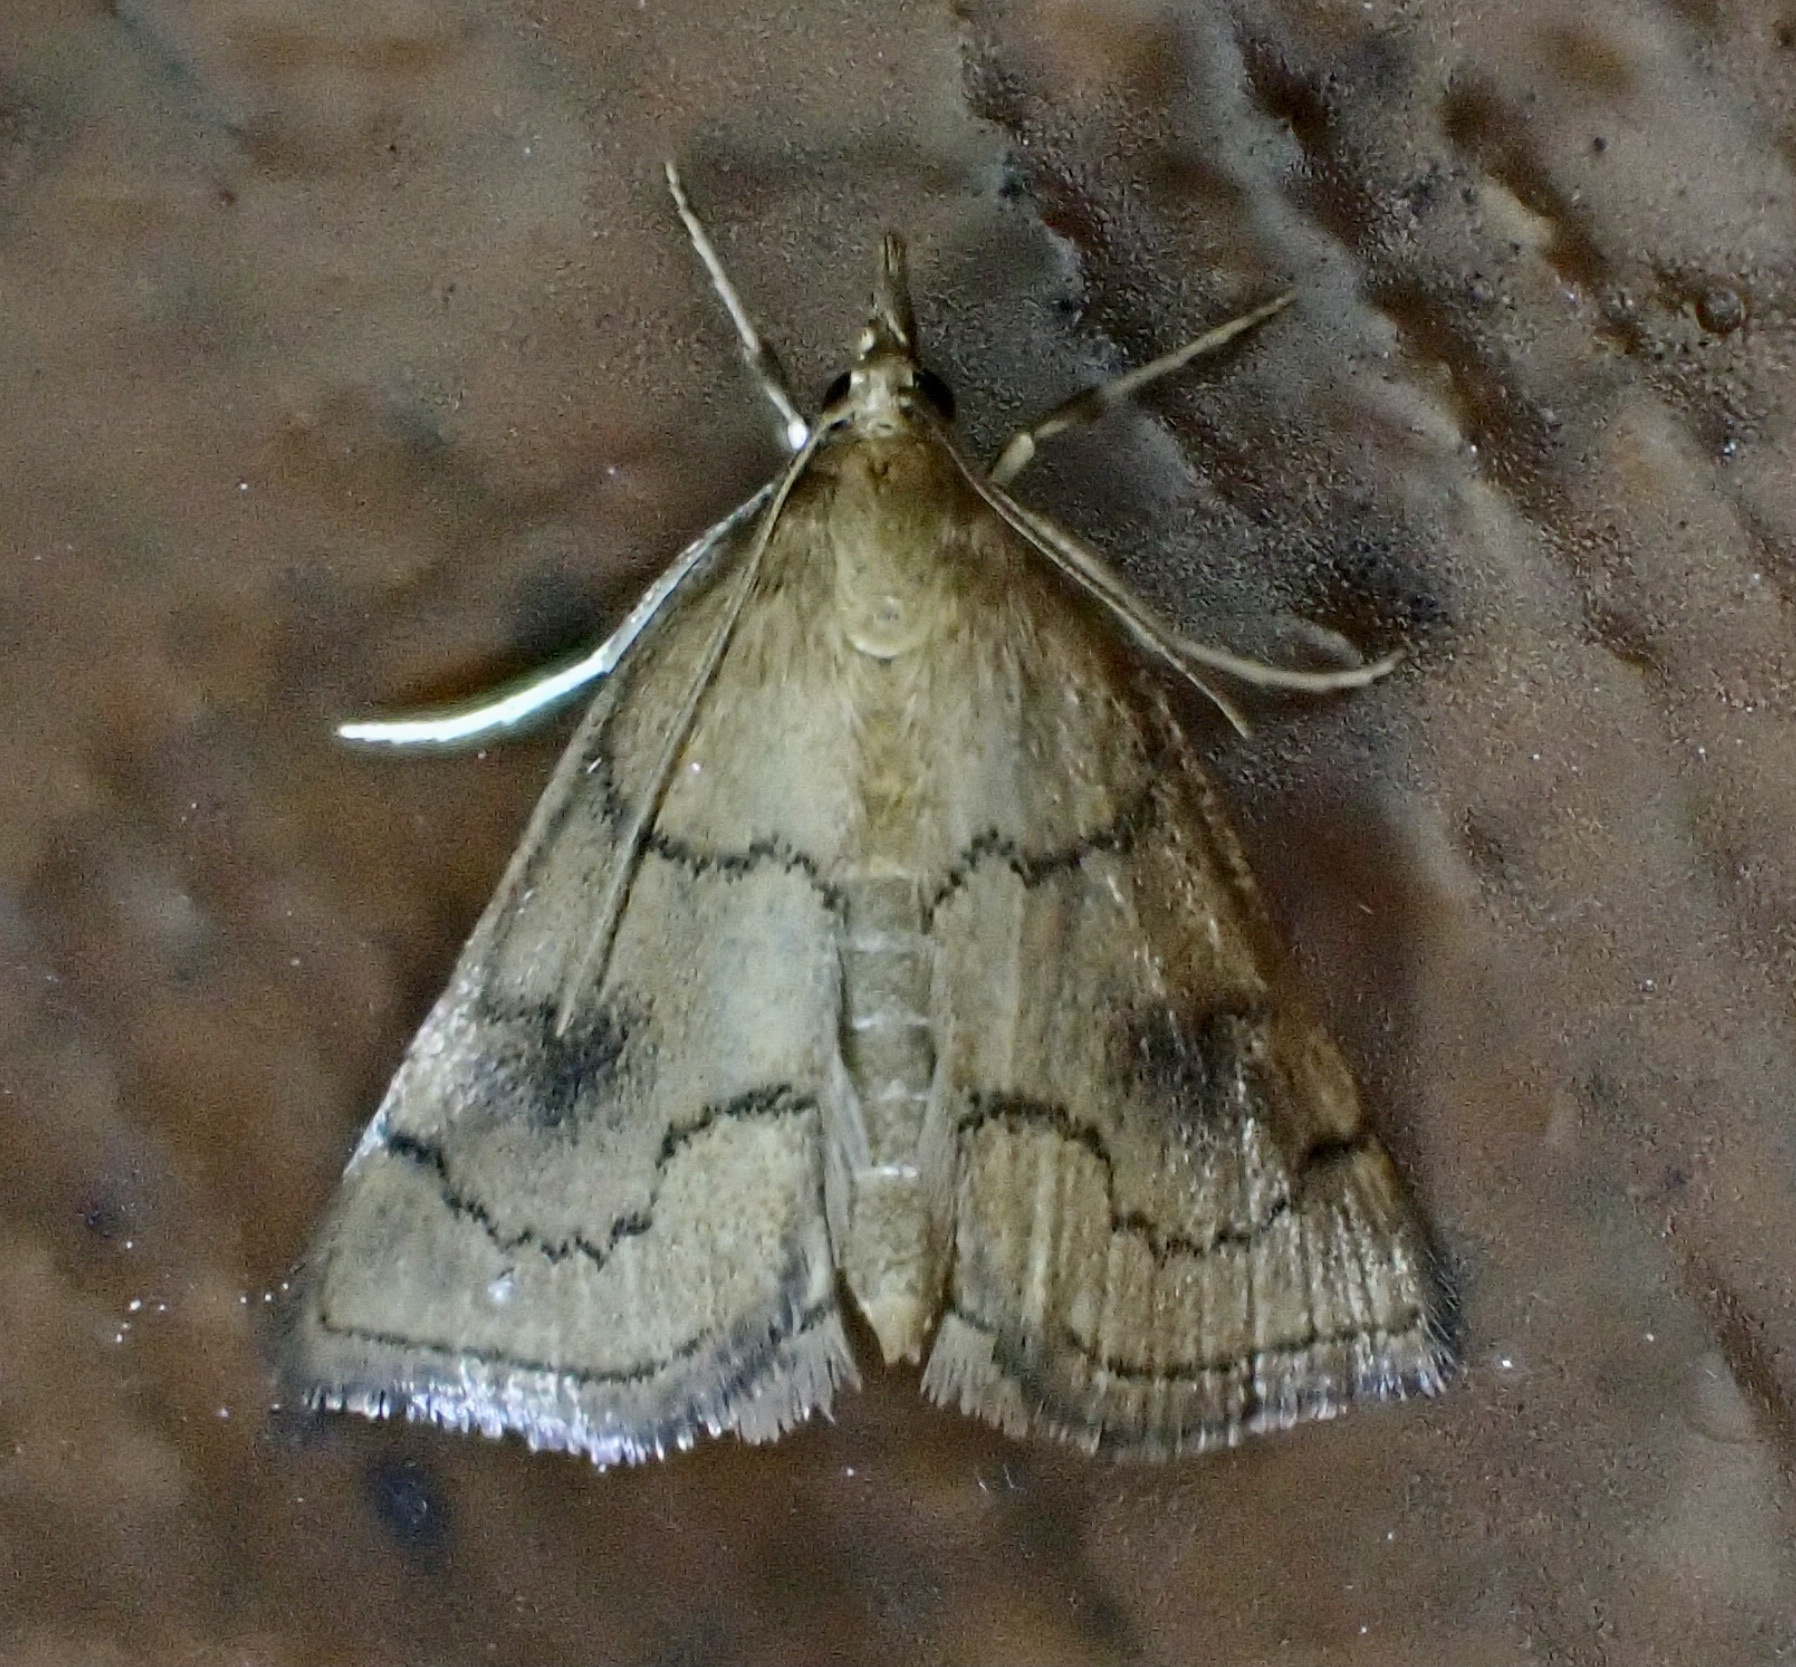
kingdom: Animalia
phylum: Arthropoda
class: Insecta
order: Lepidoptera
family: Crambidae
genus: Fumibotys
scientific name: Fumibotys fumalis
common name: Mint root borer moth
